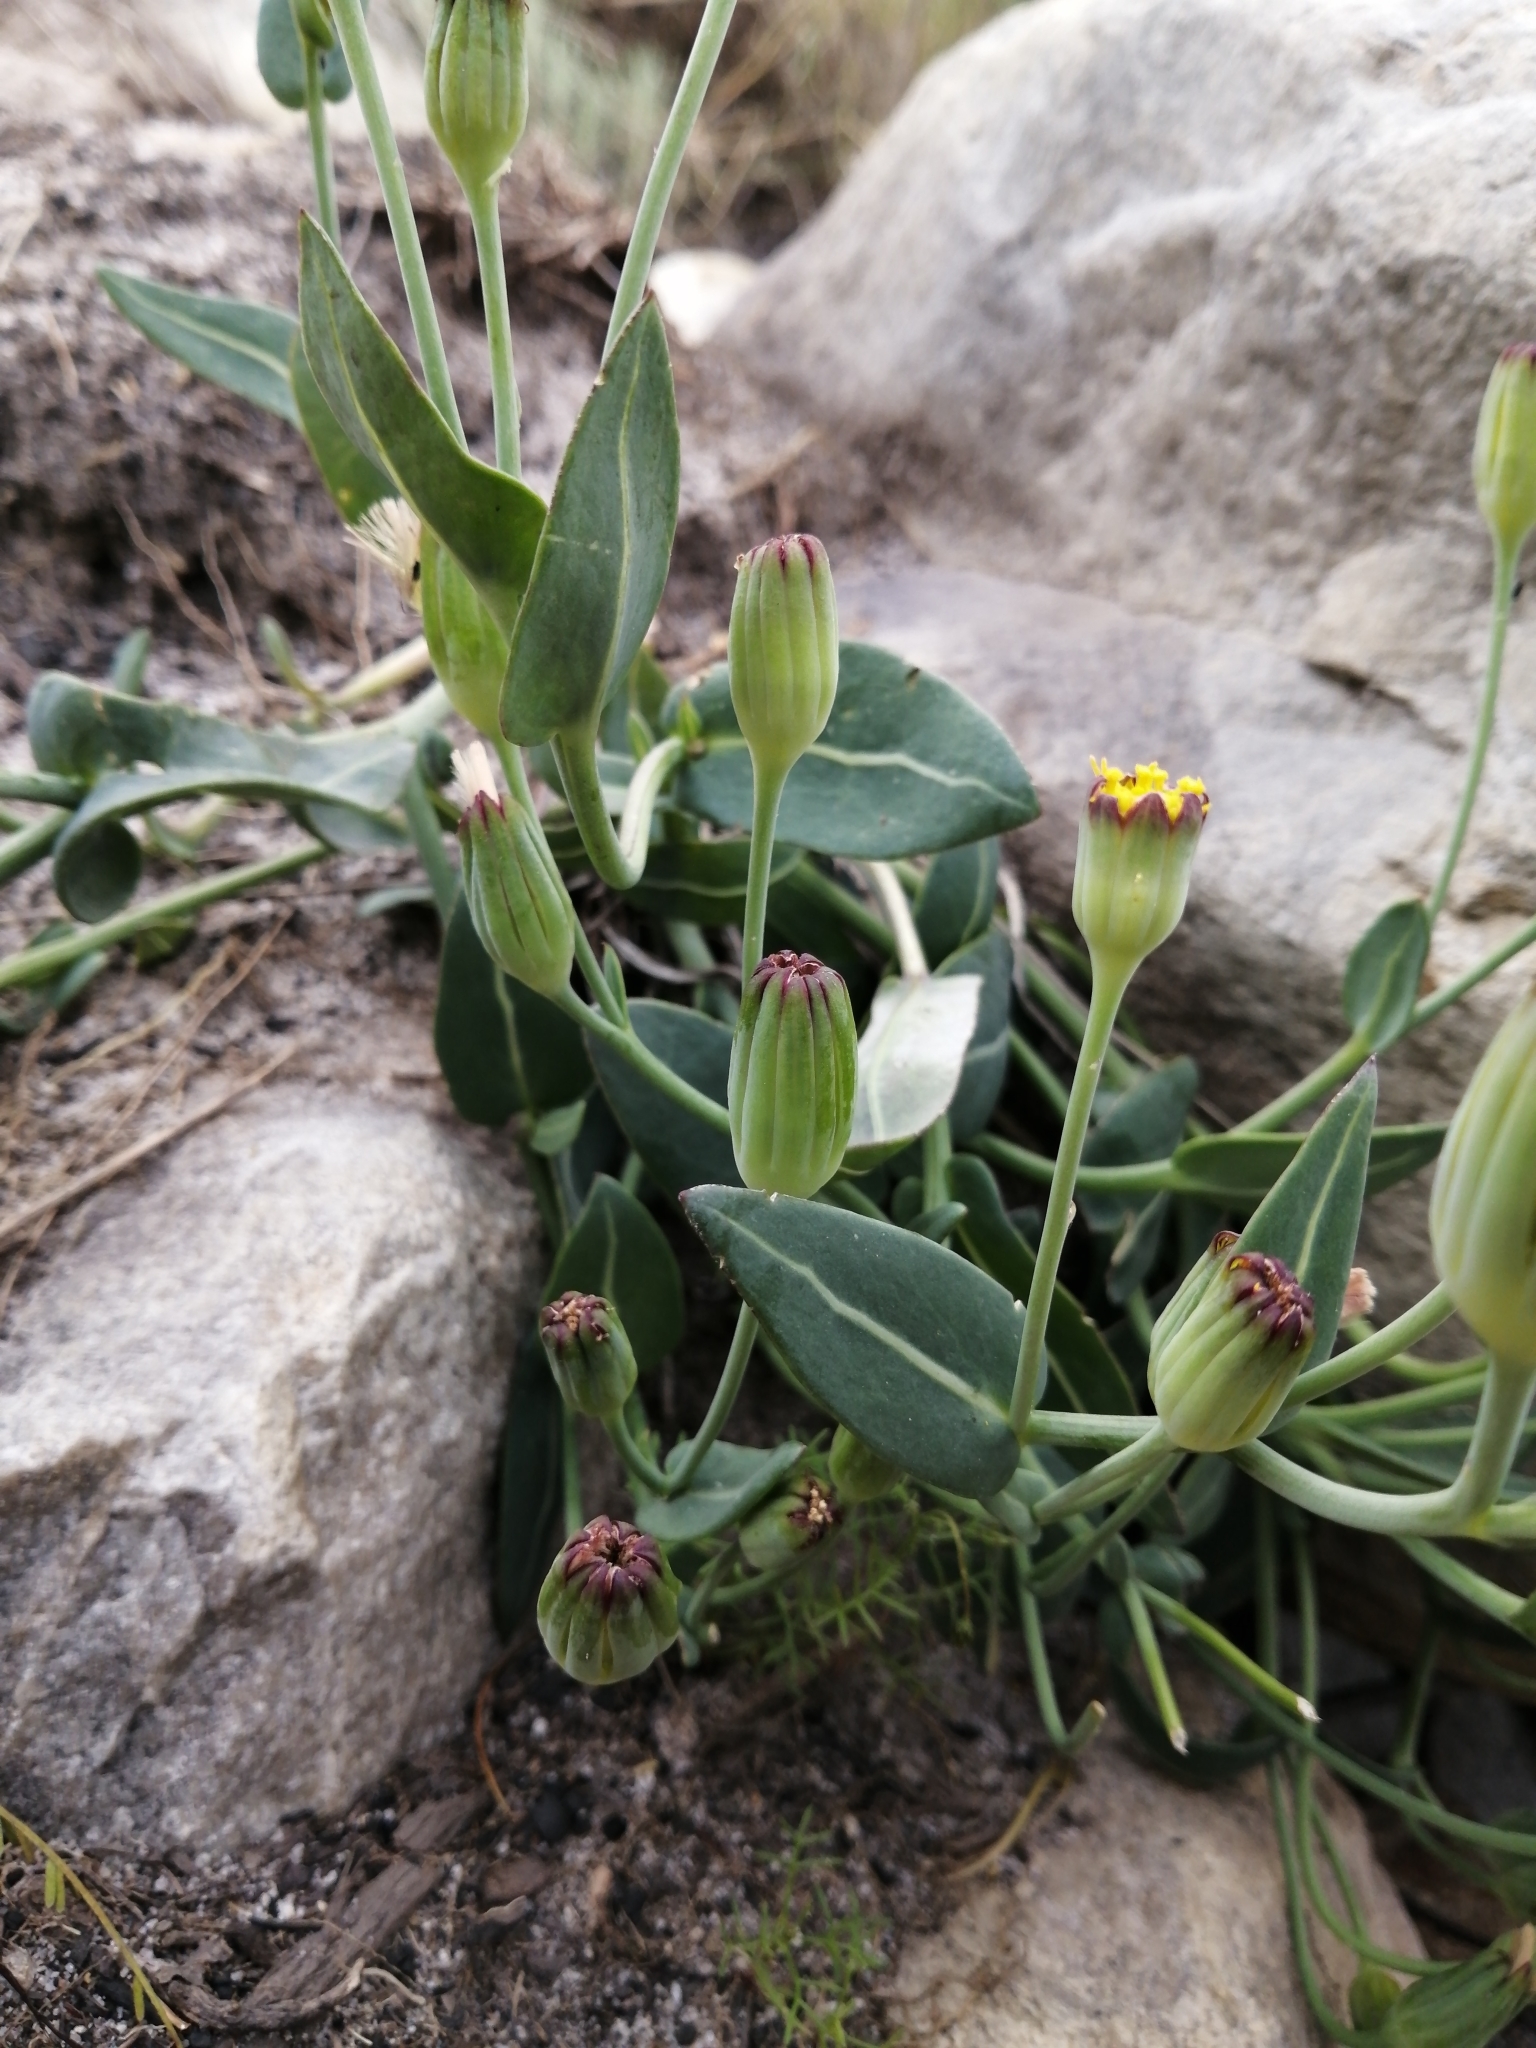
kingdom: Plantae
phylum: Tracheophyta
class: Magnoliopsida
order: Asterales
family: Asteraceae
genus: Othonna
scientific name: Othonna gymnodiscus
